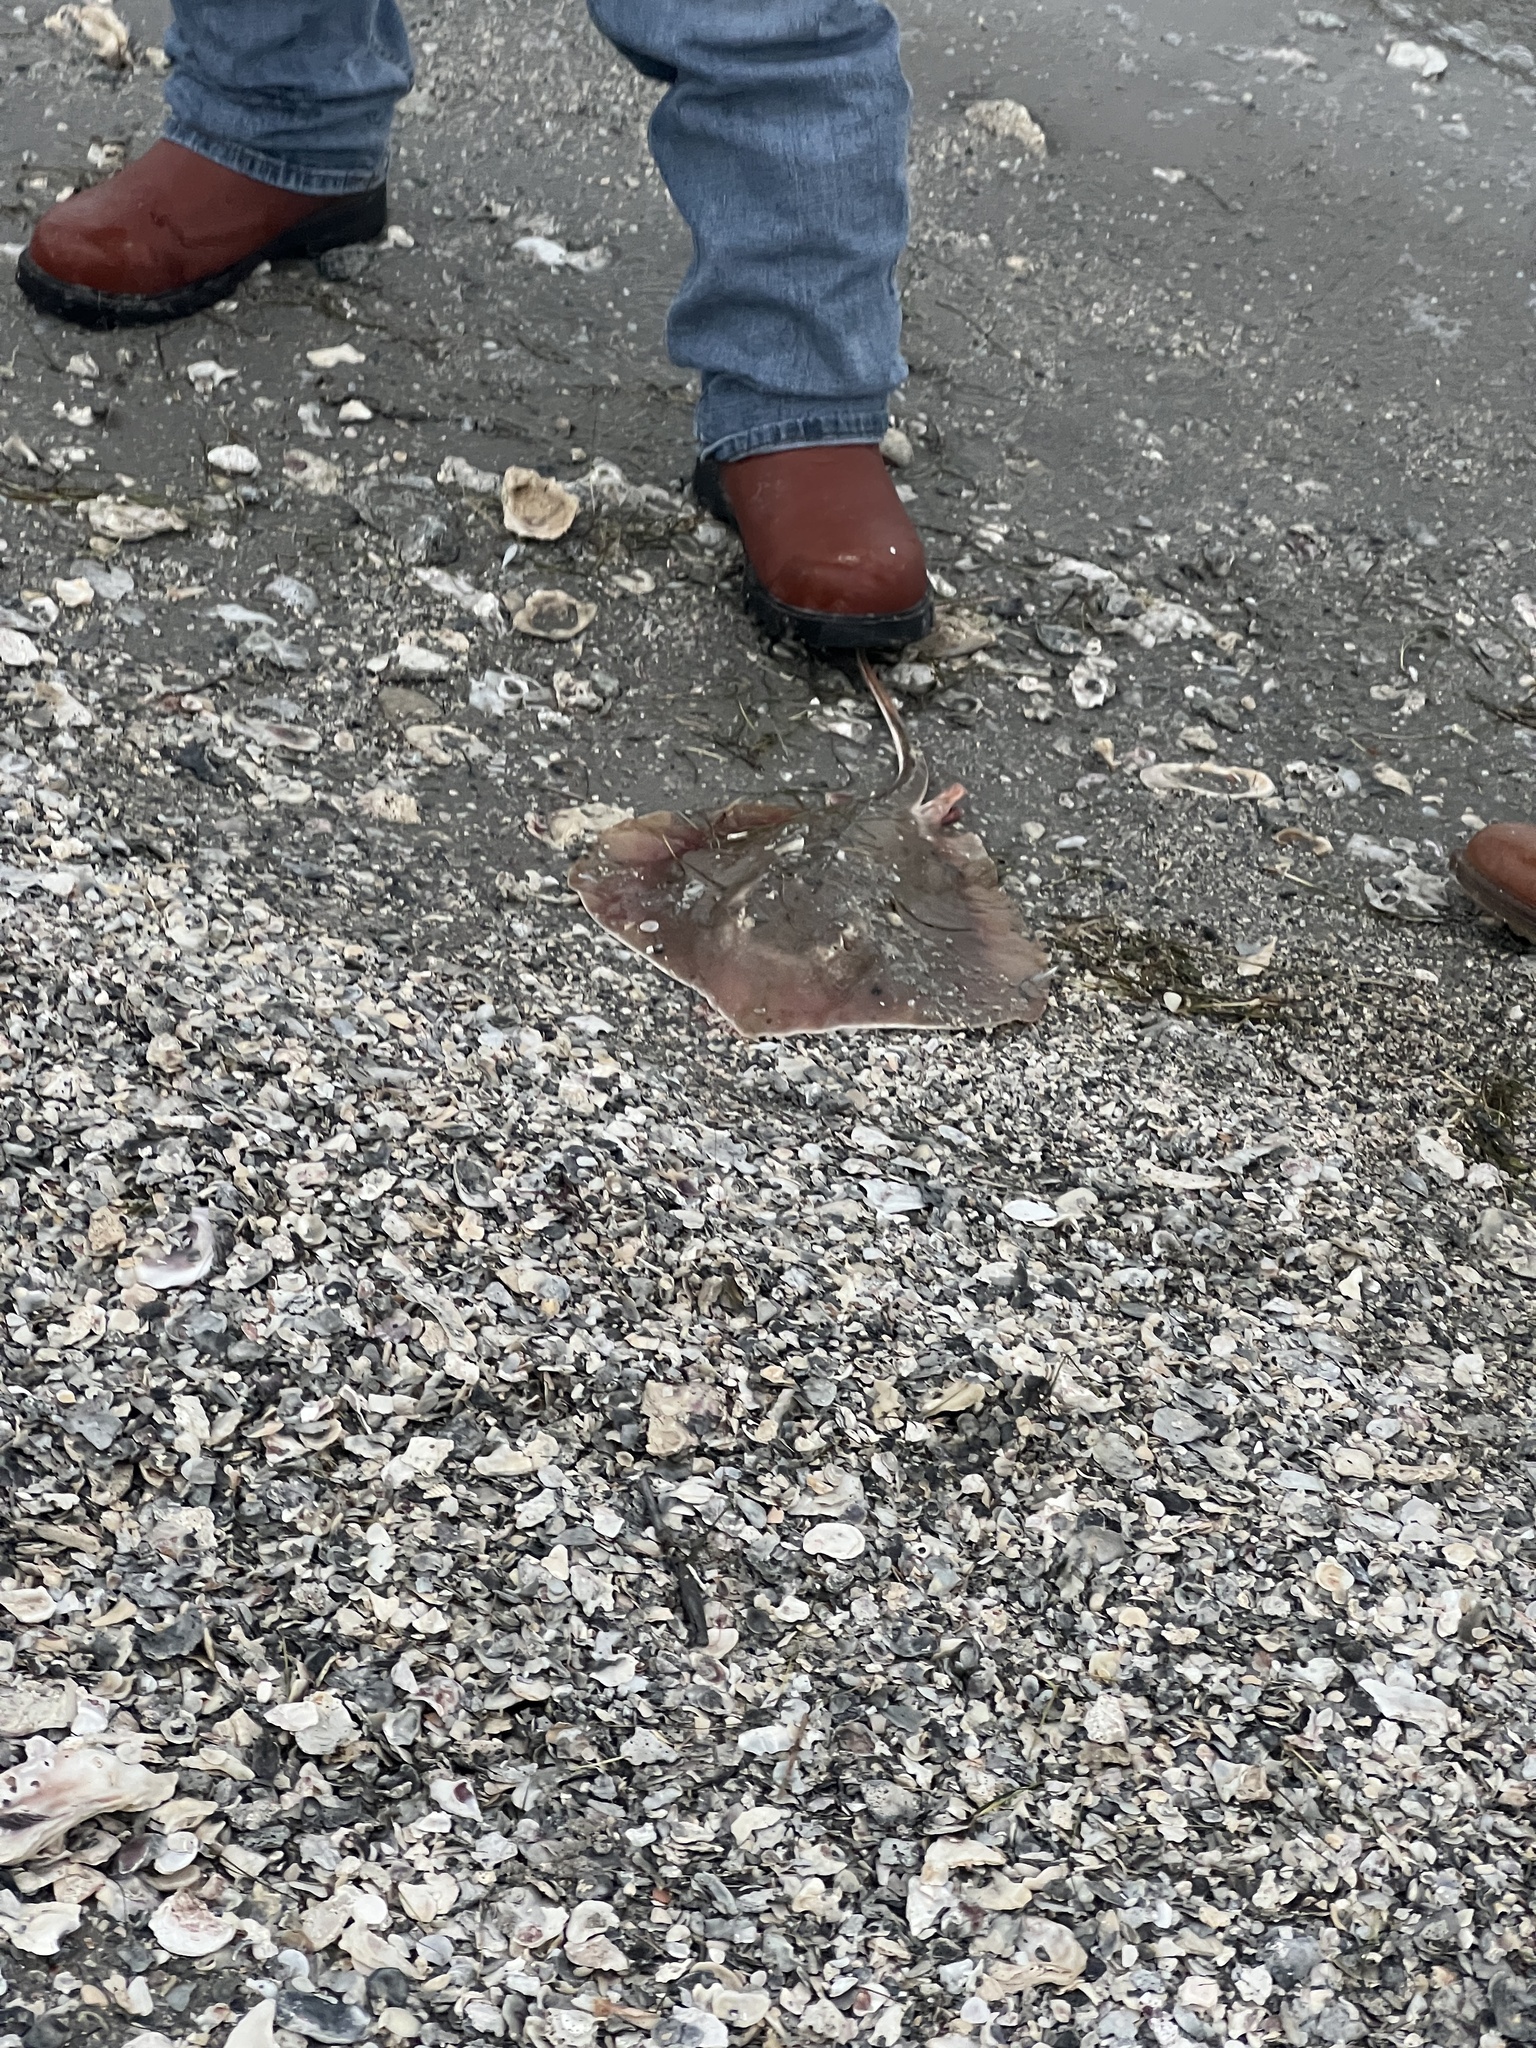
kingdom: Animalia
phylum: Chordata
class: Elasmobranchii
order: Myliobatiformes
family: Dasyatidae
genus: Hypanus
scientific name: Hypanus sabinus
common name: Atlantic stingray
